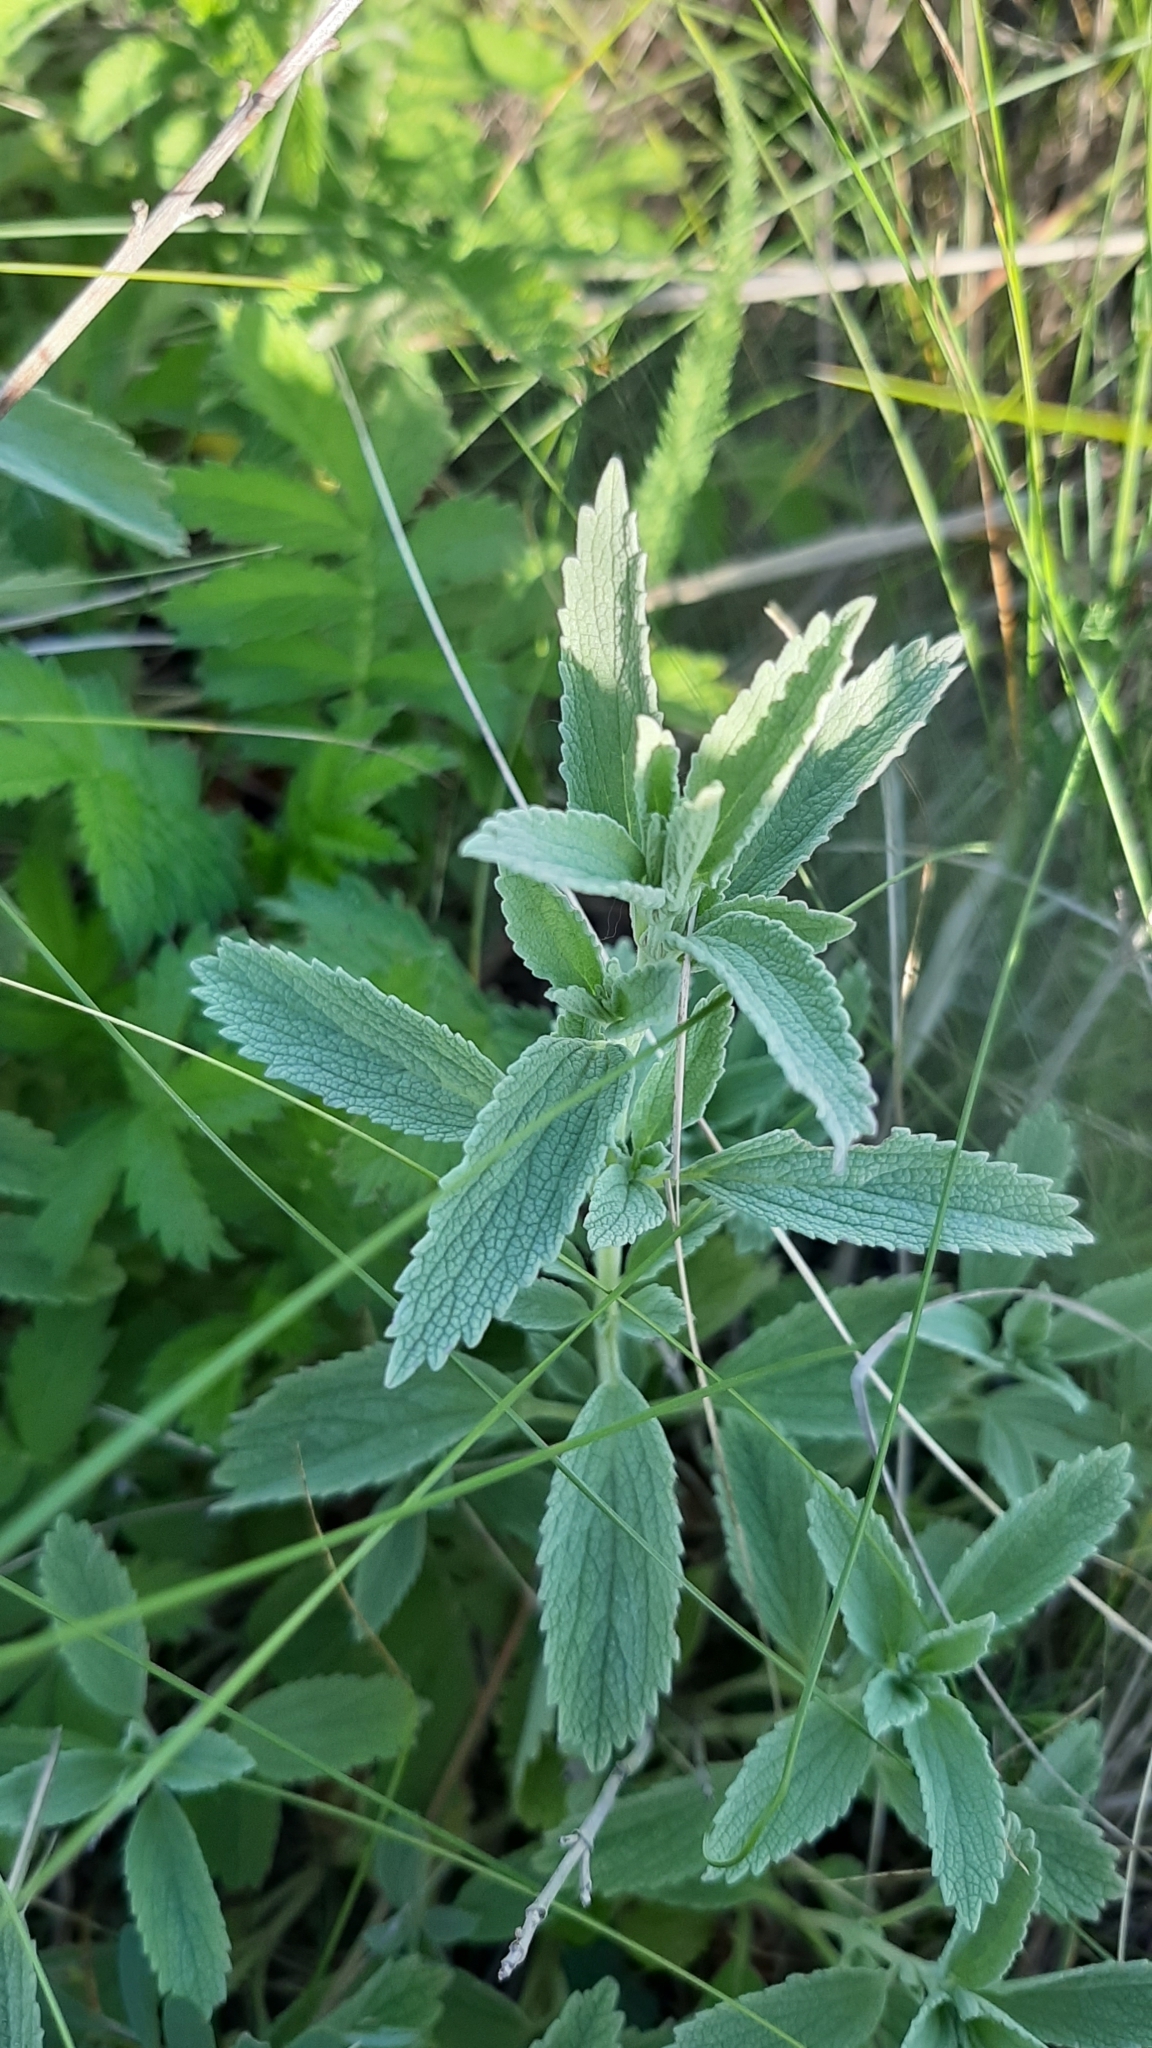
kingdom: Plantae
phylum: Tracheophyta
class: Magnoliopsida
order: Lamiales
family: Lamiaceae
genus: Marrubium
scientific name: Marrubium peregrinum
